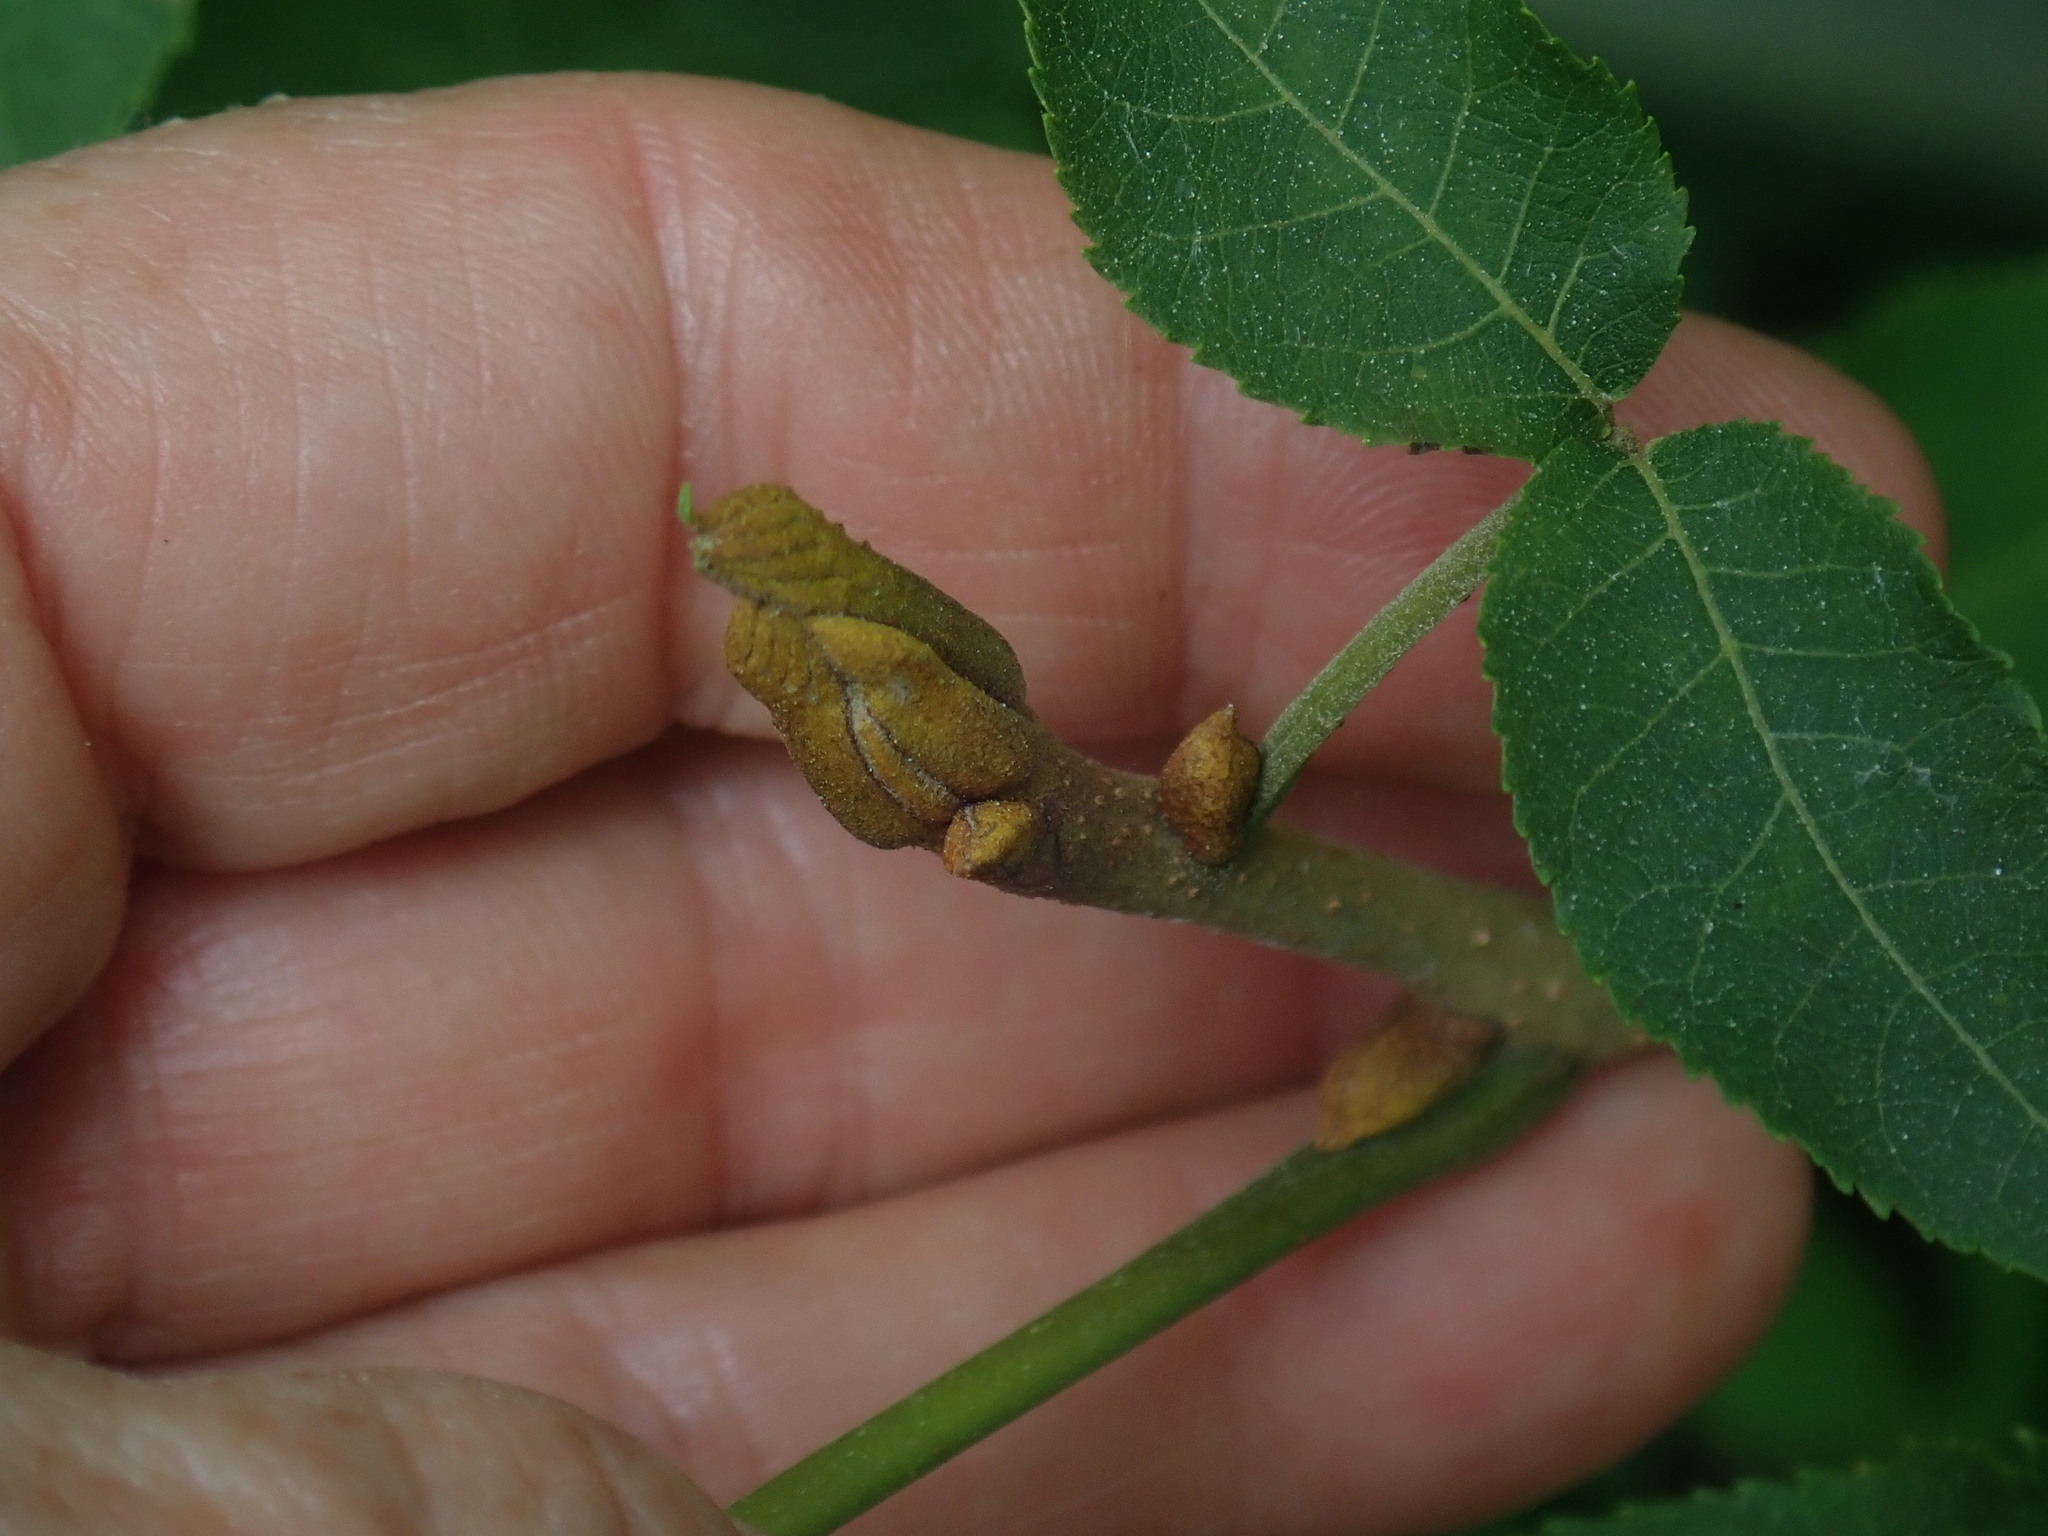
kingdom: Plantae
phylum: Tracheophyta
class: Magnoliopsida
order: Fagales
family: Juglandaceae
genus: Carya
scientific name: Carya cordiformis
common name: Bitternut hickory
